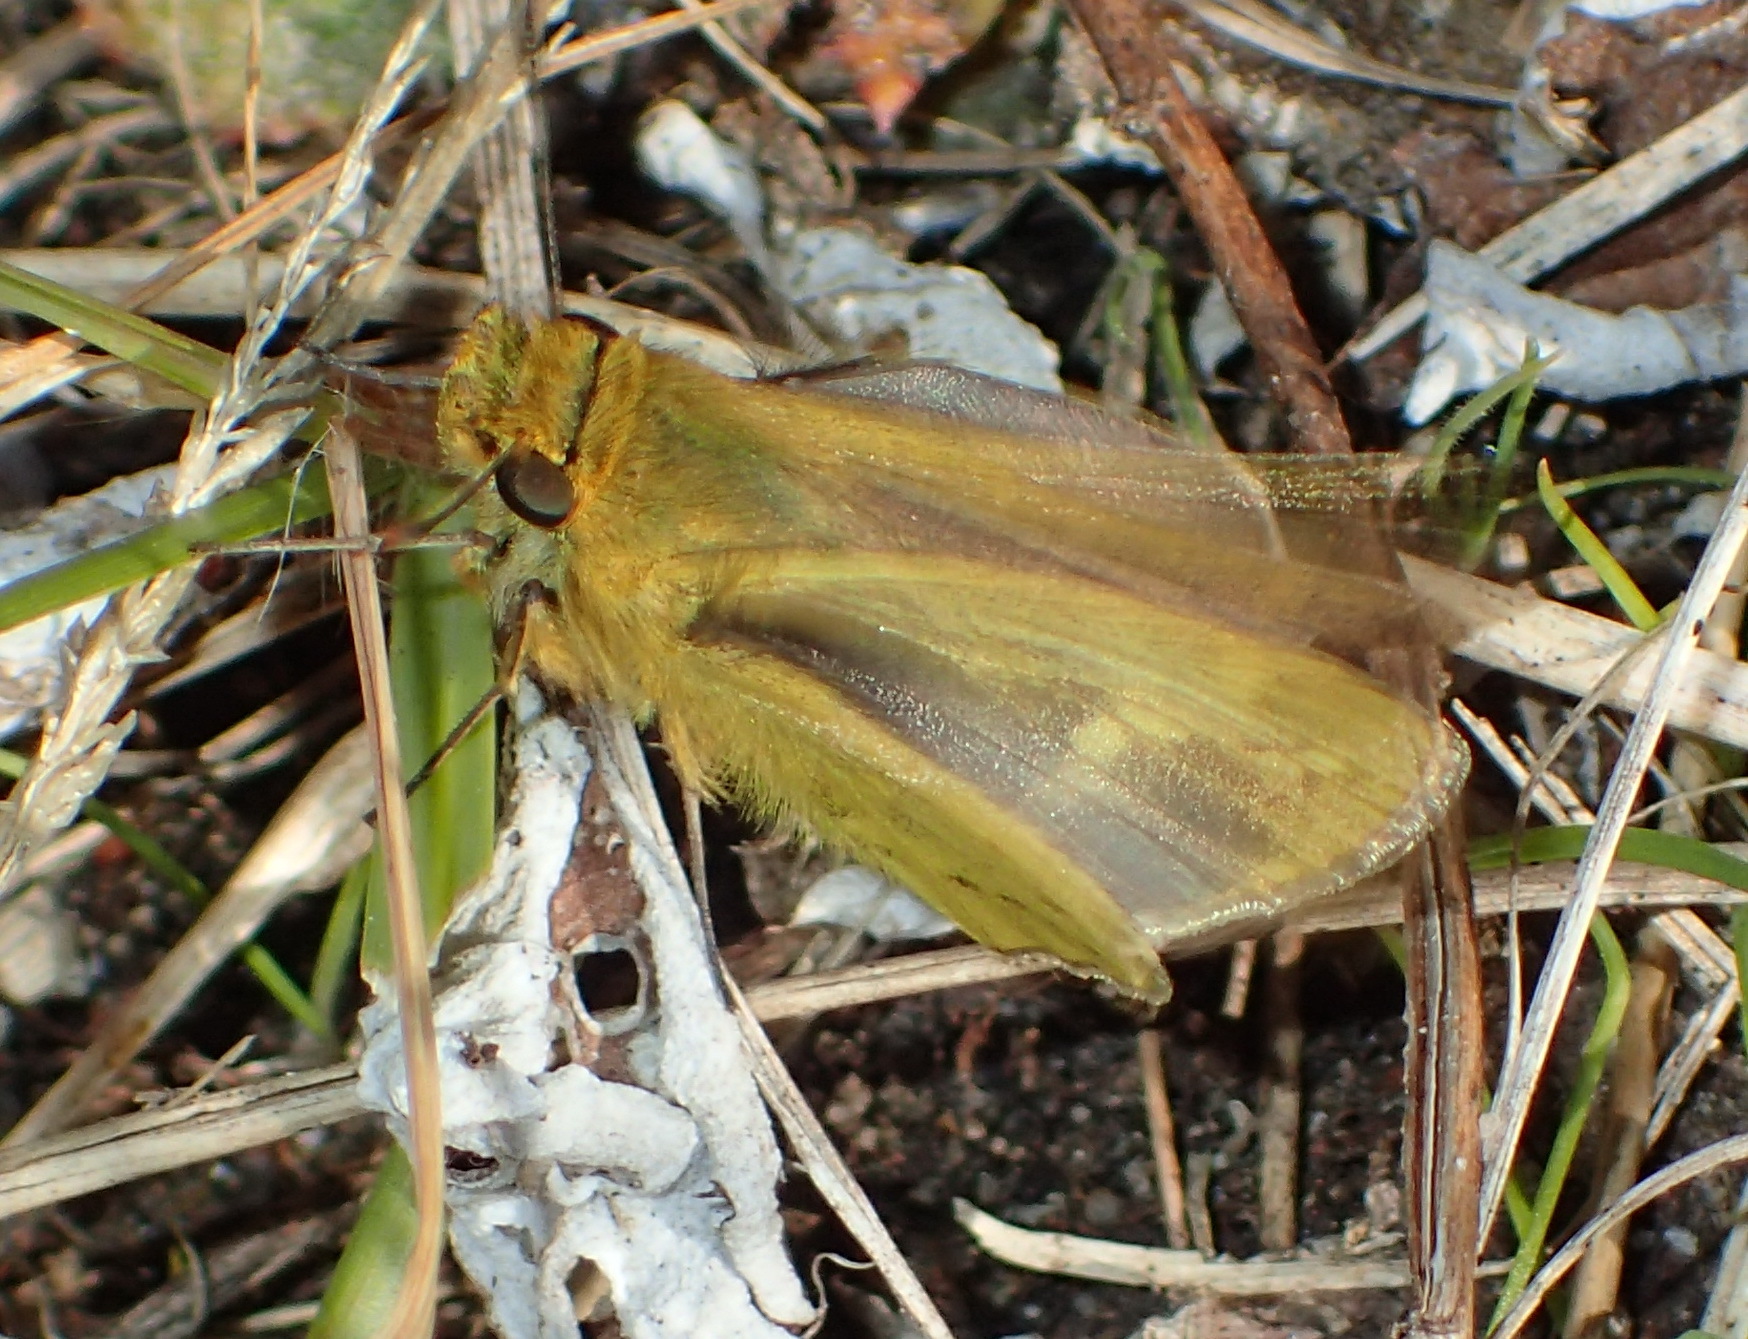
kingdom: Animalia
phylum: Arthropoda
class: Insecta
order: Lepidoptera
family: Hesperiidae
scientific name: Hesperiidae
